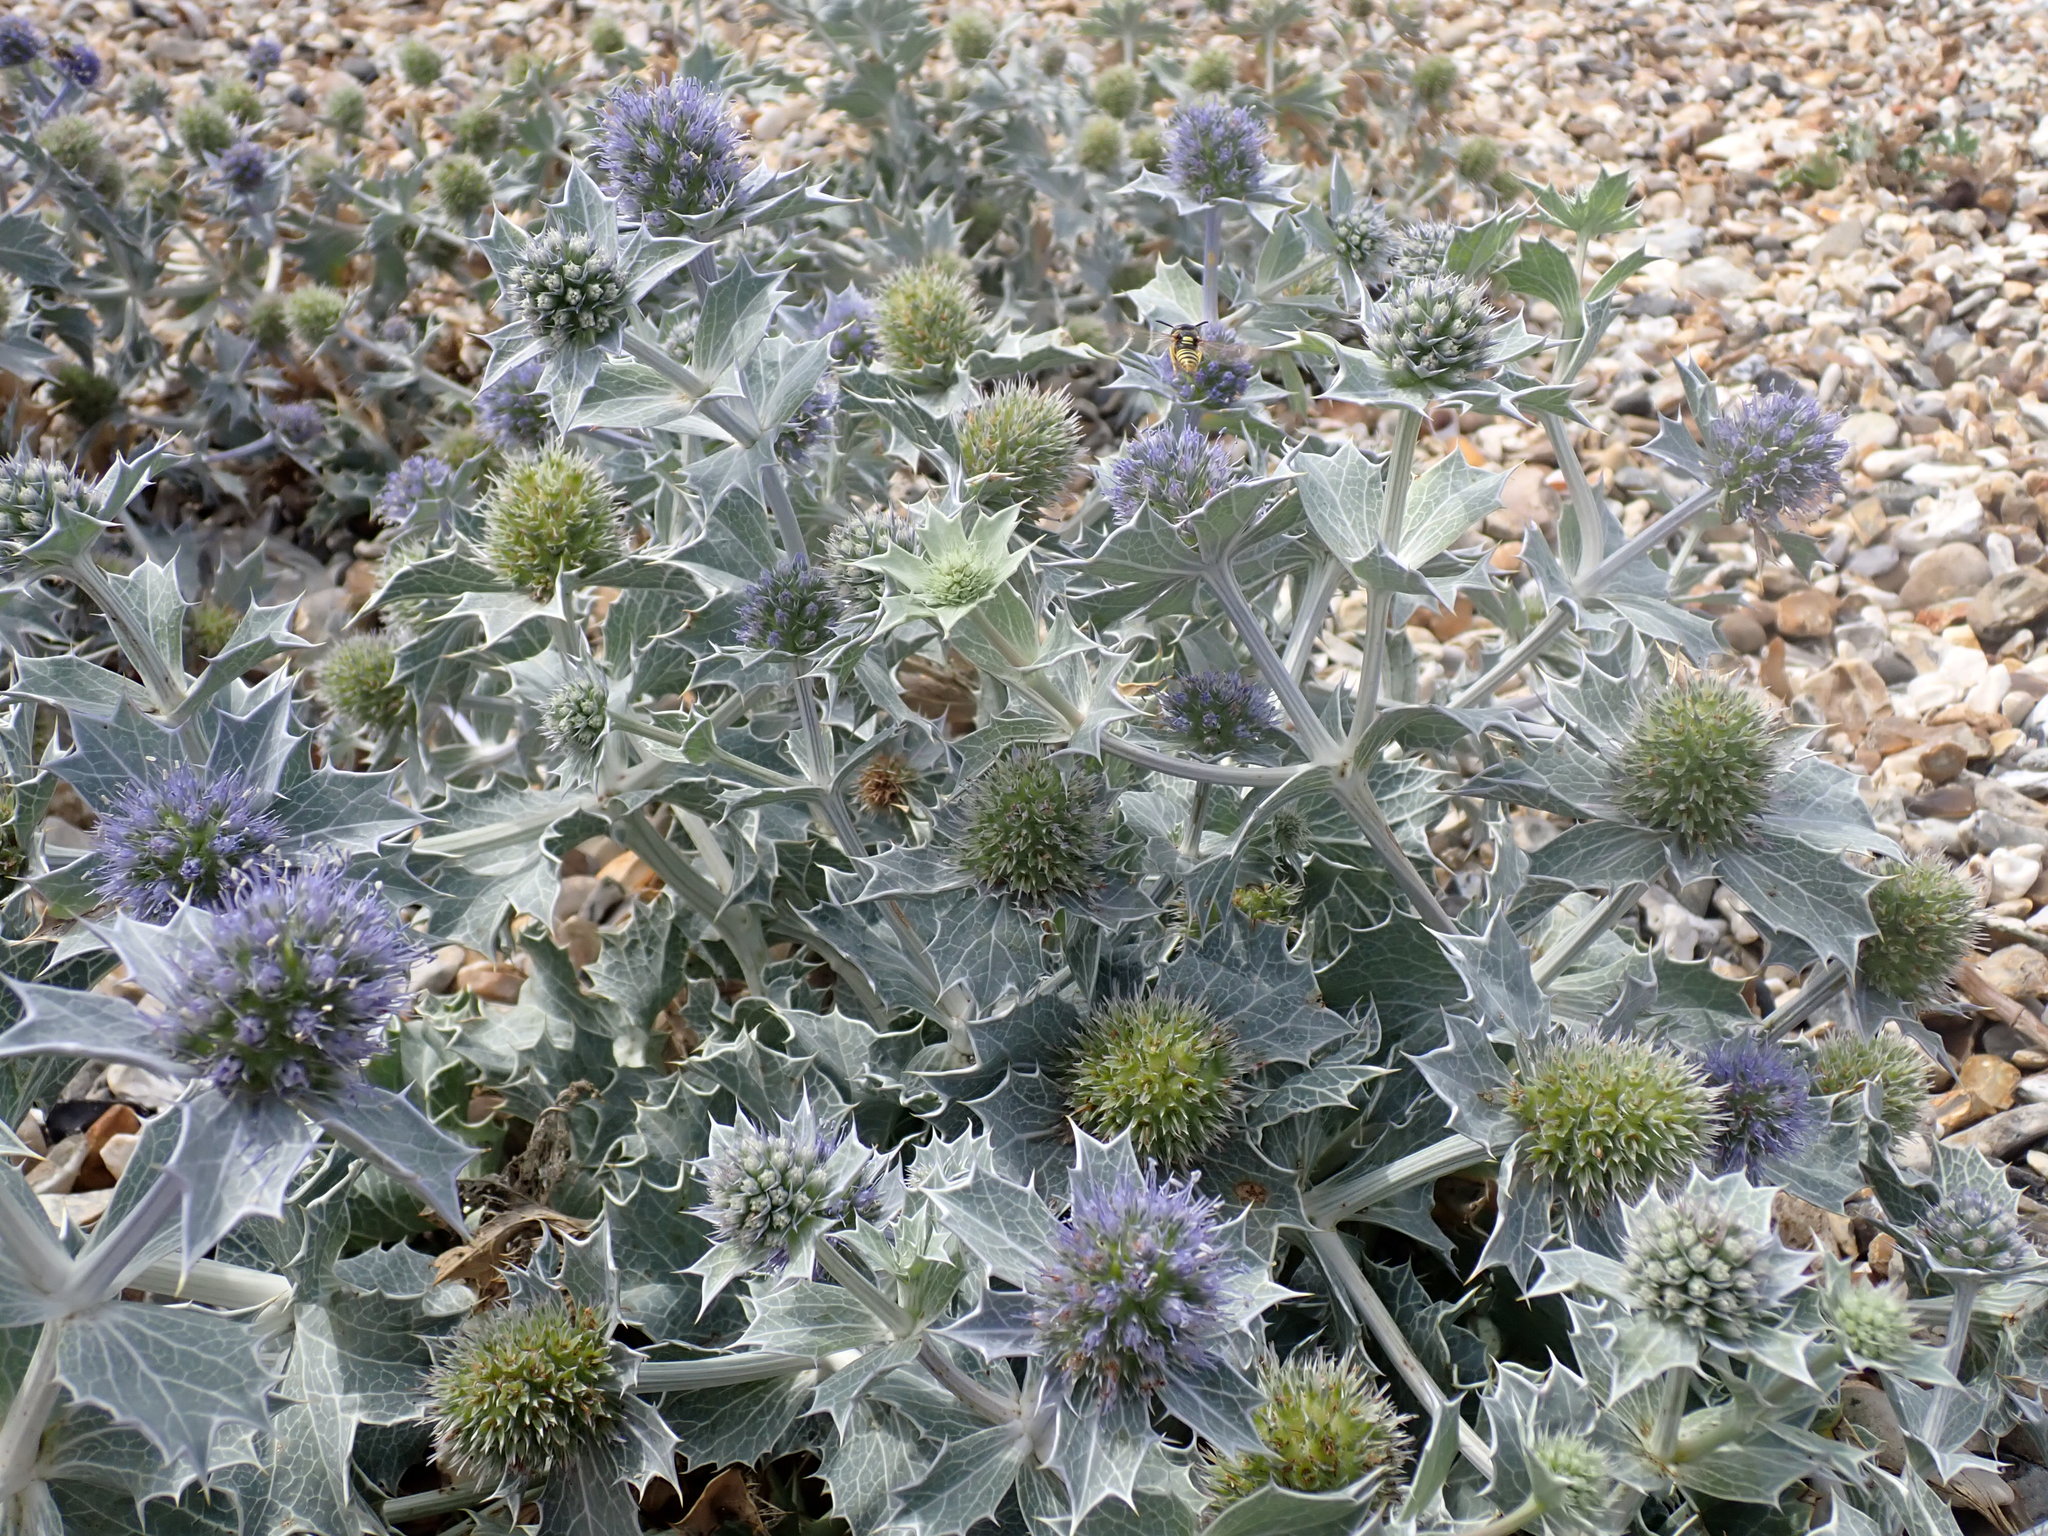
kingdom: Plantae
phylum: Tracheophyta
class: Magnoliopsida
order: Apiales
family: Apiaceae
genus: Eryngium
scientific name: Eryngium maritimum
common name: Sea-holly
